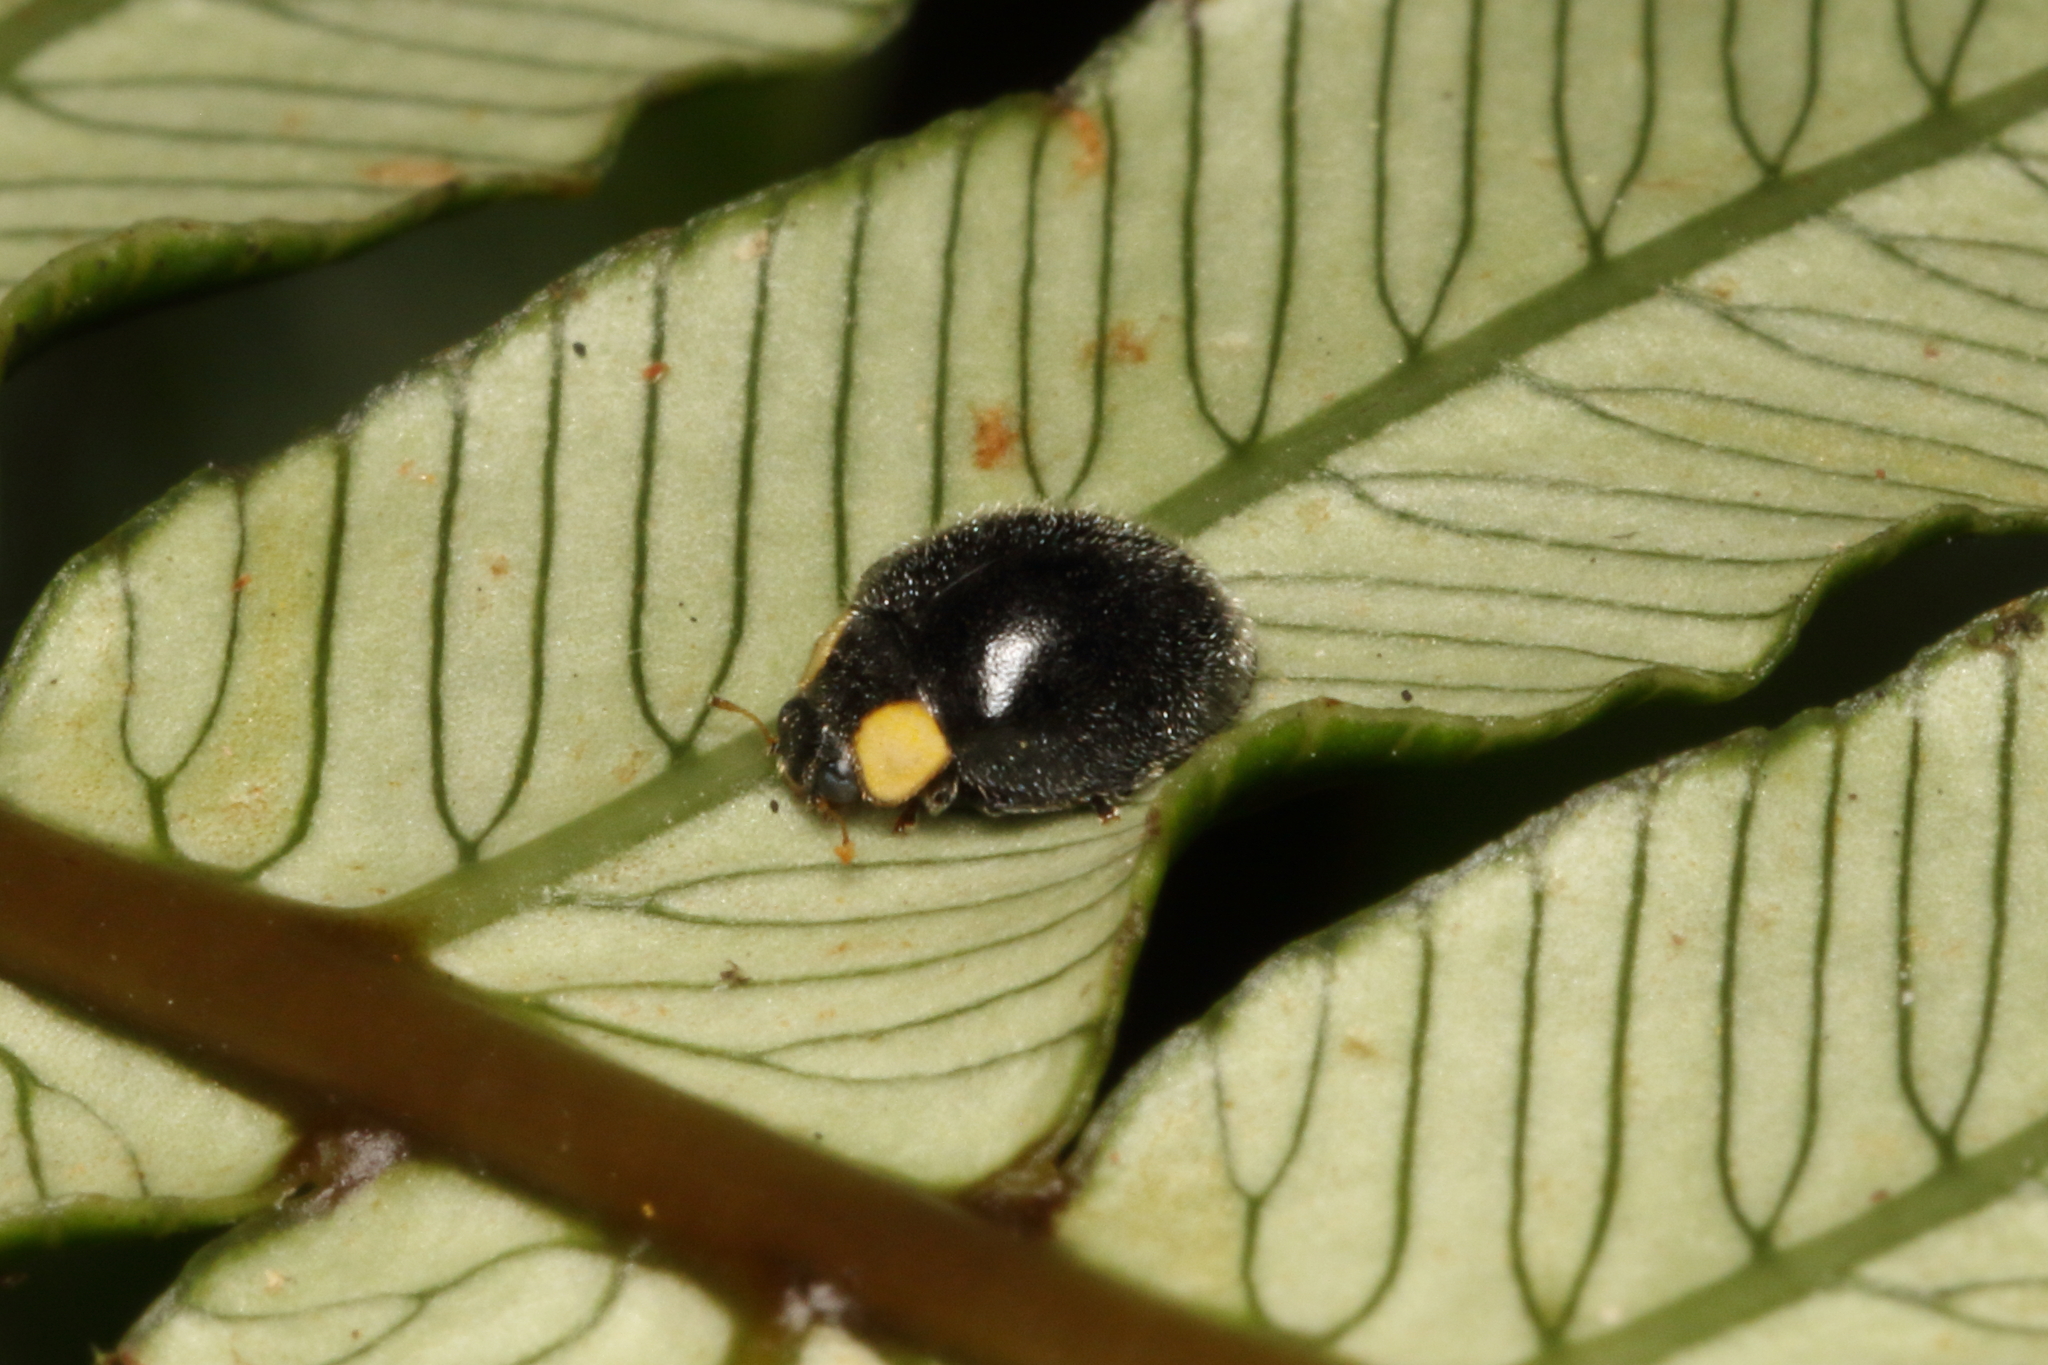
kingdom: Animalia
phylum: Arthropoda
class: Insecta
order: Coleoptera
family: Coccinellidae
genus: Scymnodes
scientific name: Scymnodes lividigaster
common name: Yellowshouldered lady beetle
